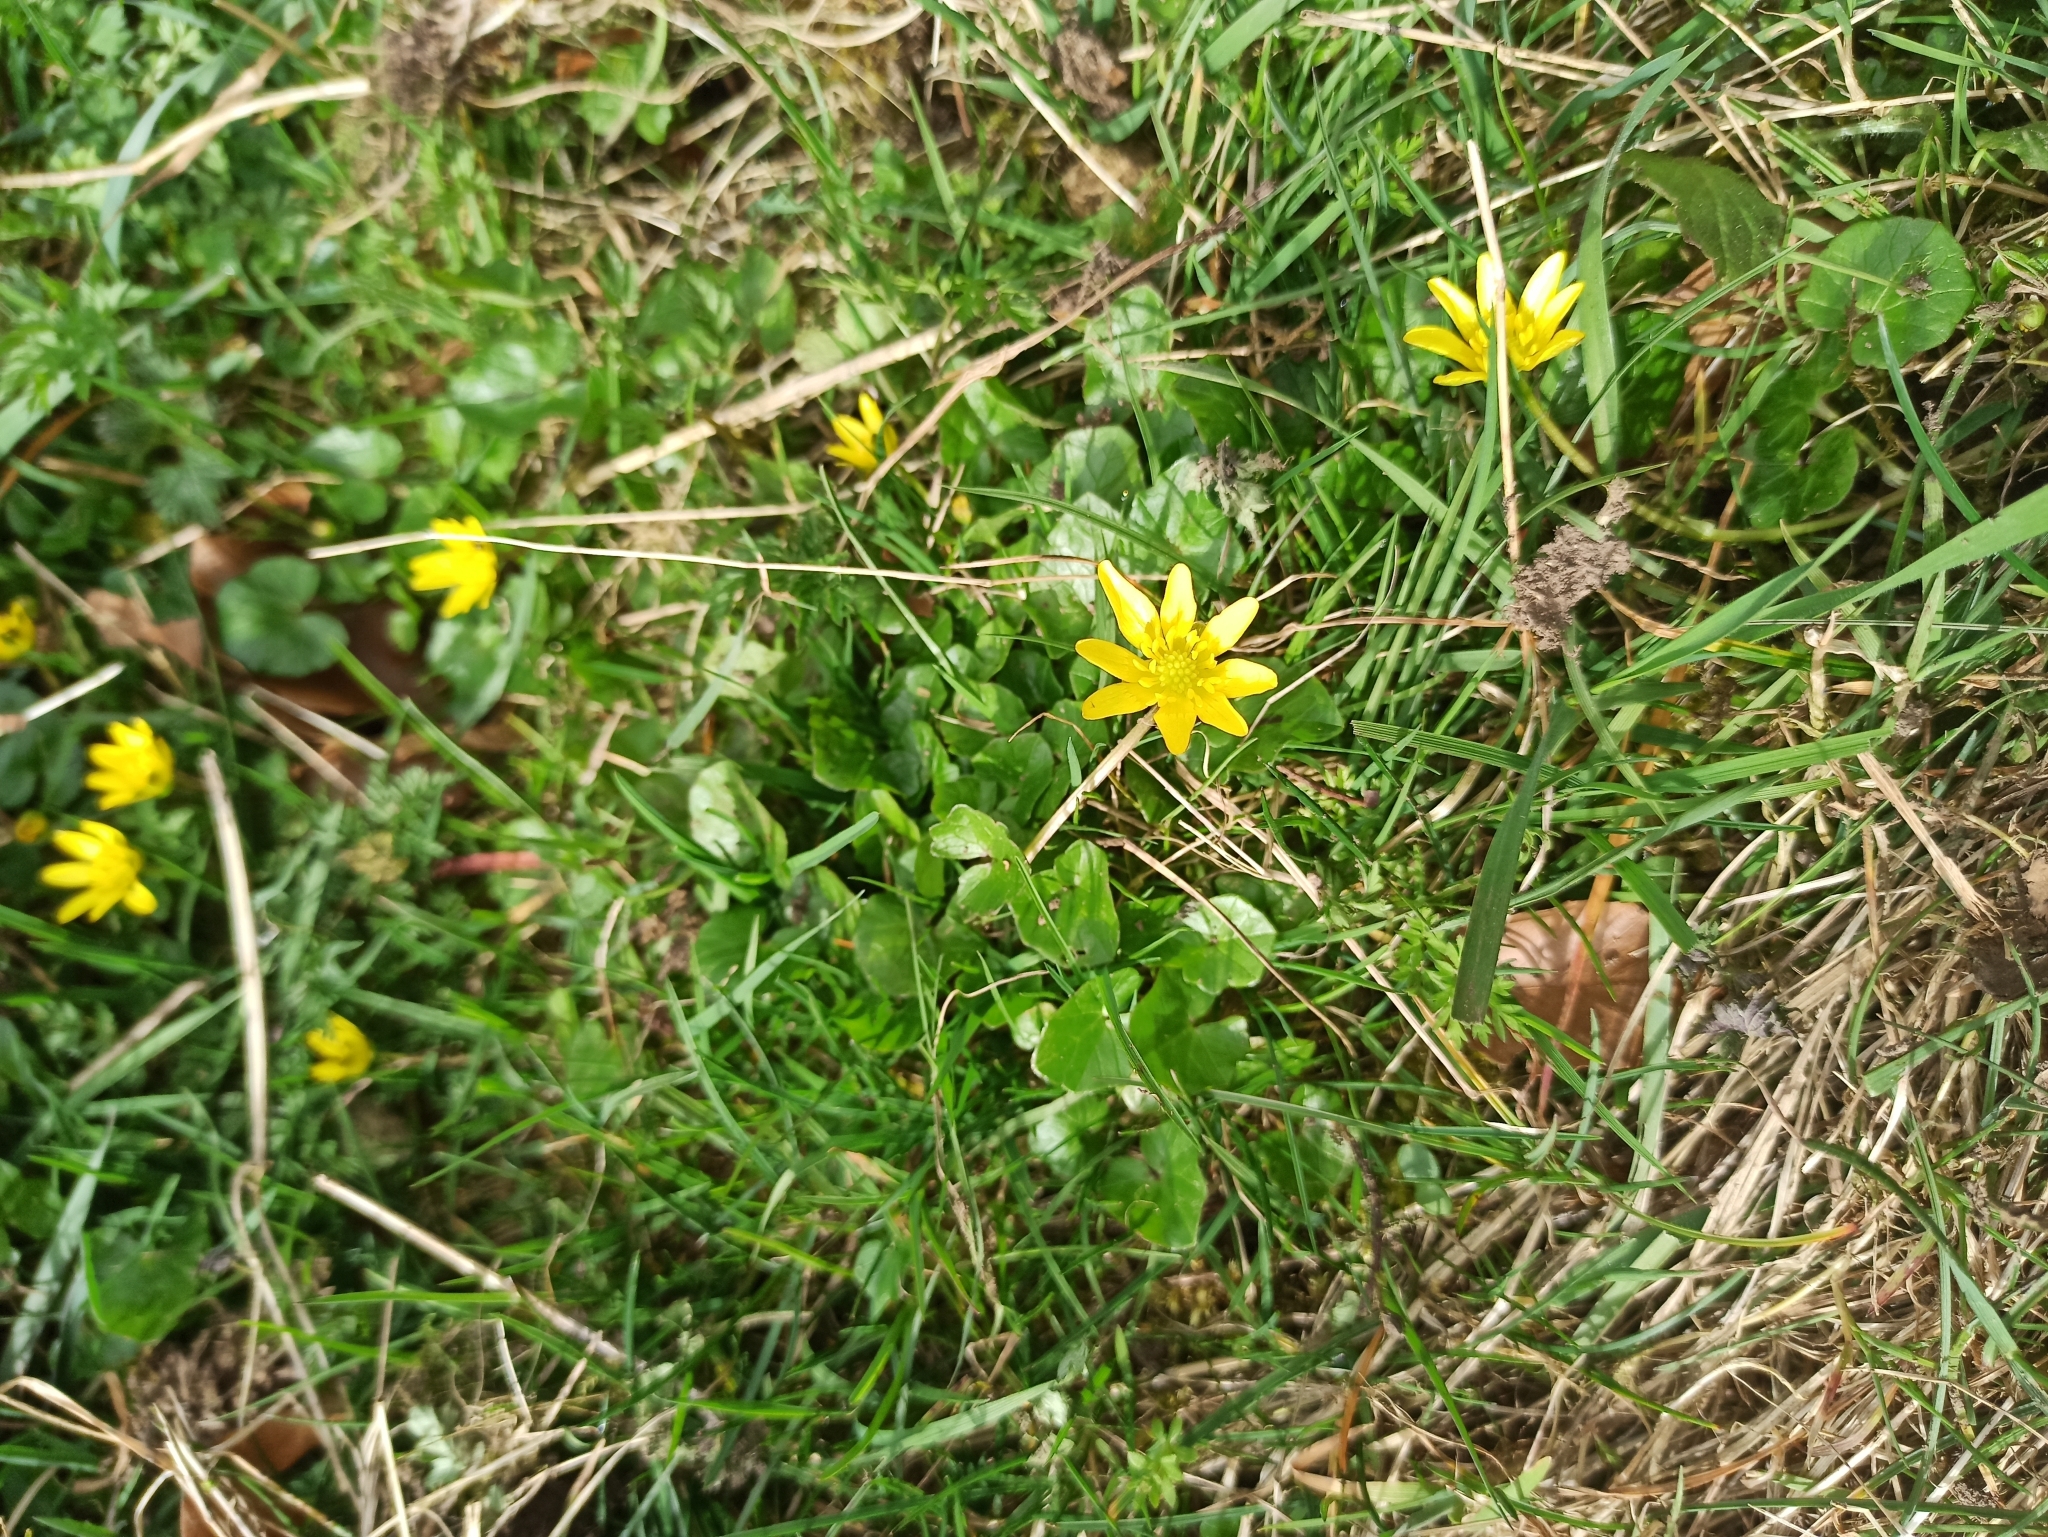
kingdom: Plantae
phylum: Tracheophyta
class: Magnoliopsida
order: Ranunculales
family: Ranunculaceae
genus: Ficaria
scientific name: Ficaria verna
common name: Lesser celandine
